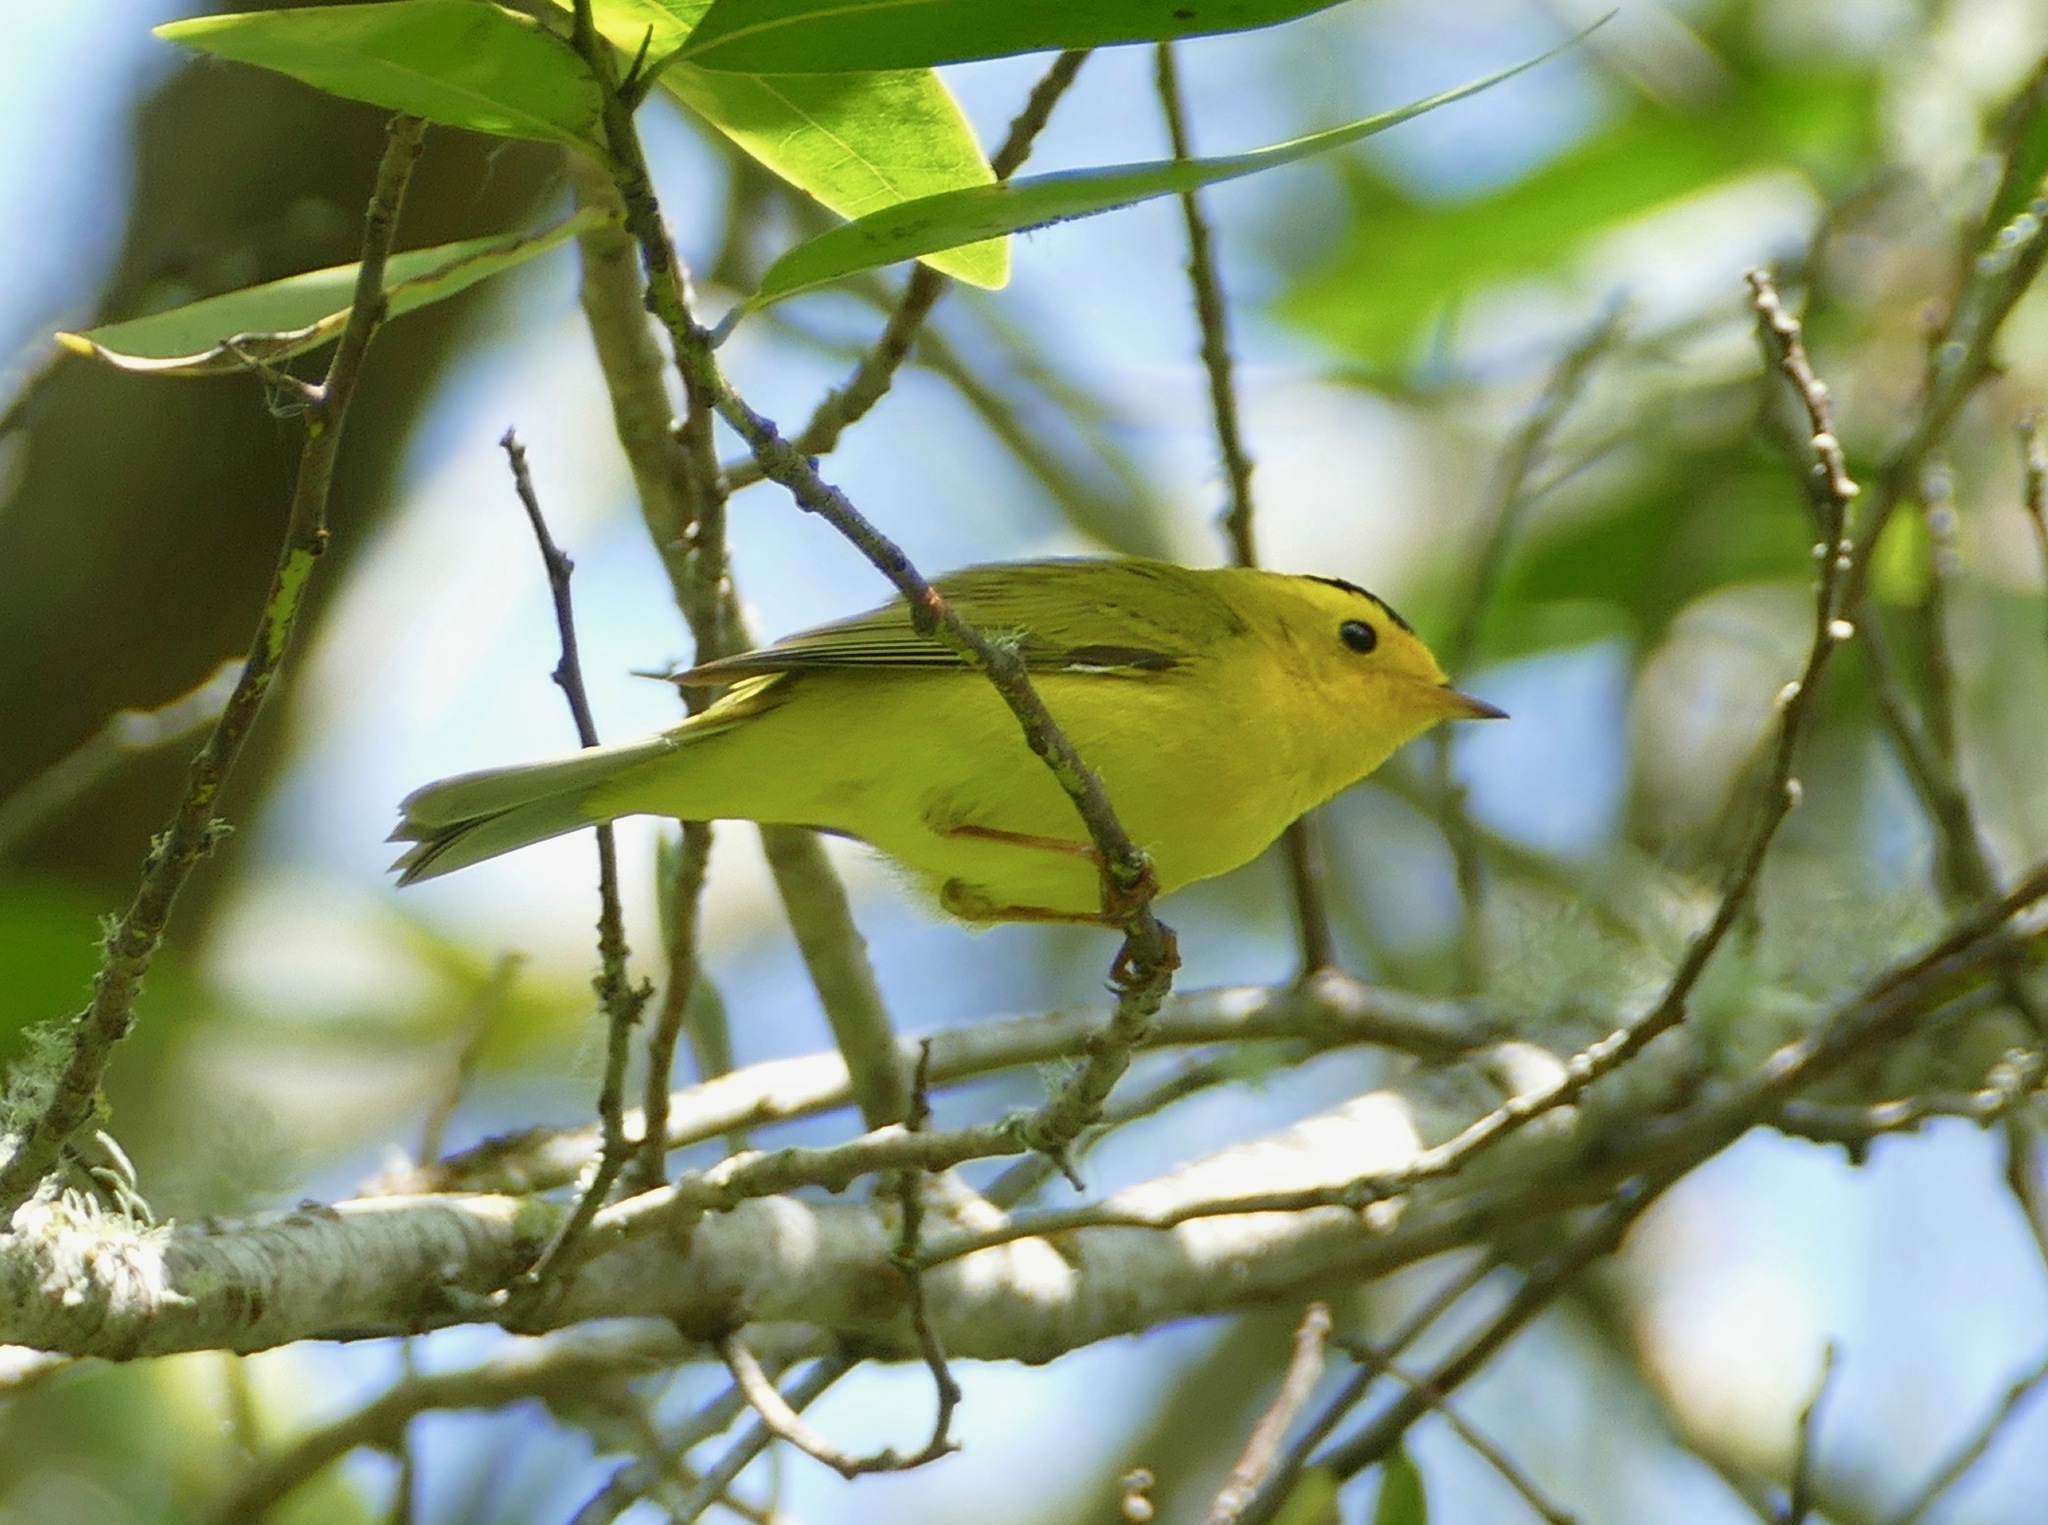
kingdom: Animalia
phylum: Chordata
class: Aves
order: Passeriformes
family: Parulidae
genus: Cardellina
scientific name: Cardellina pusilla
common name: Wilson's warbler
